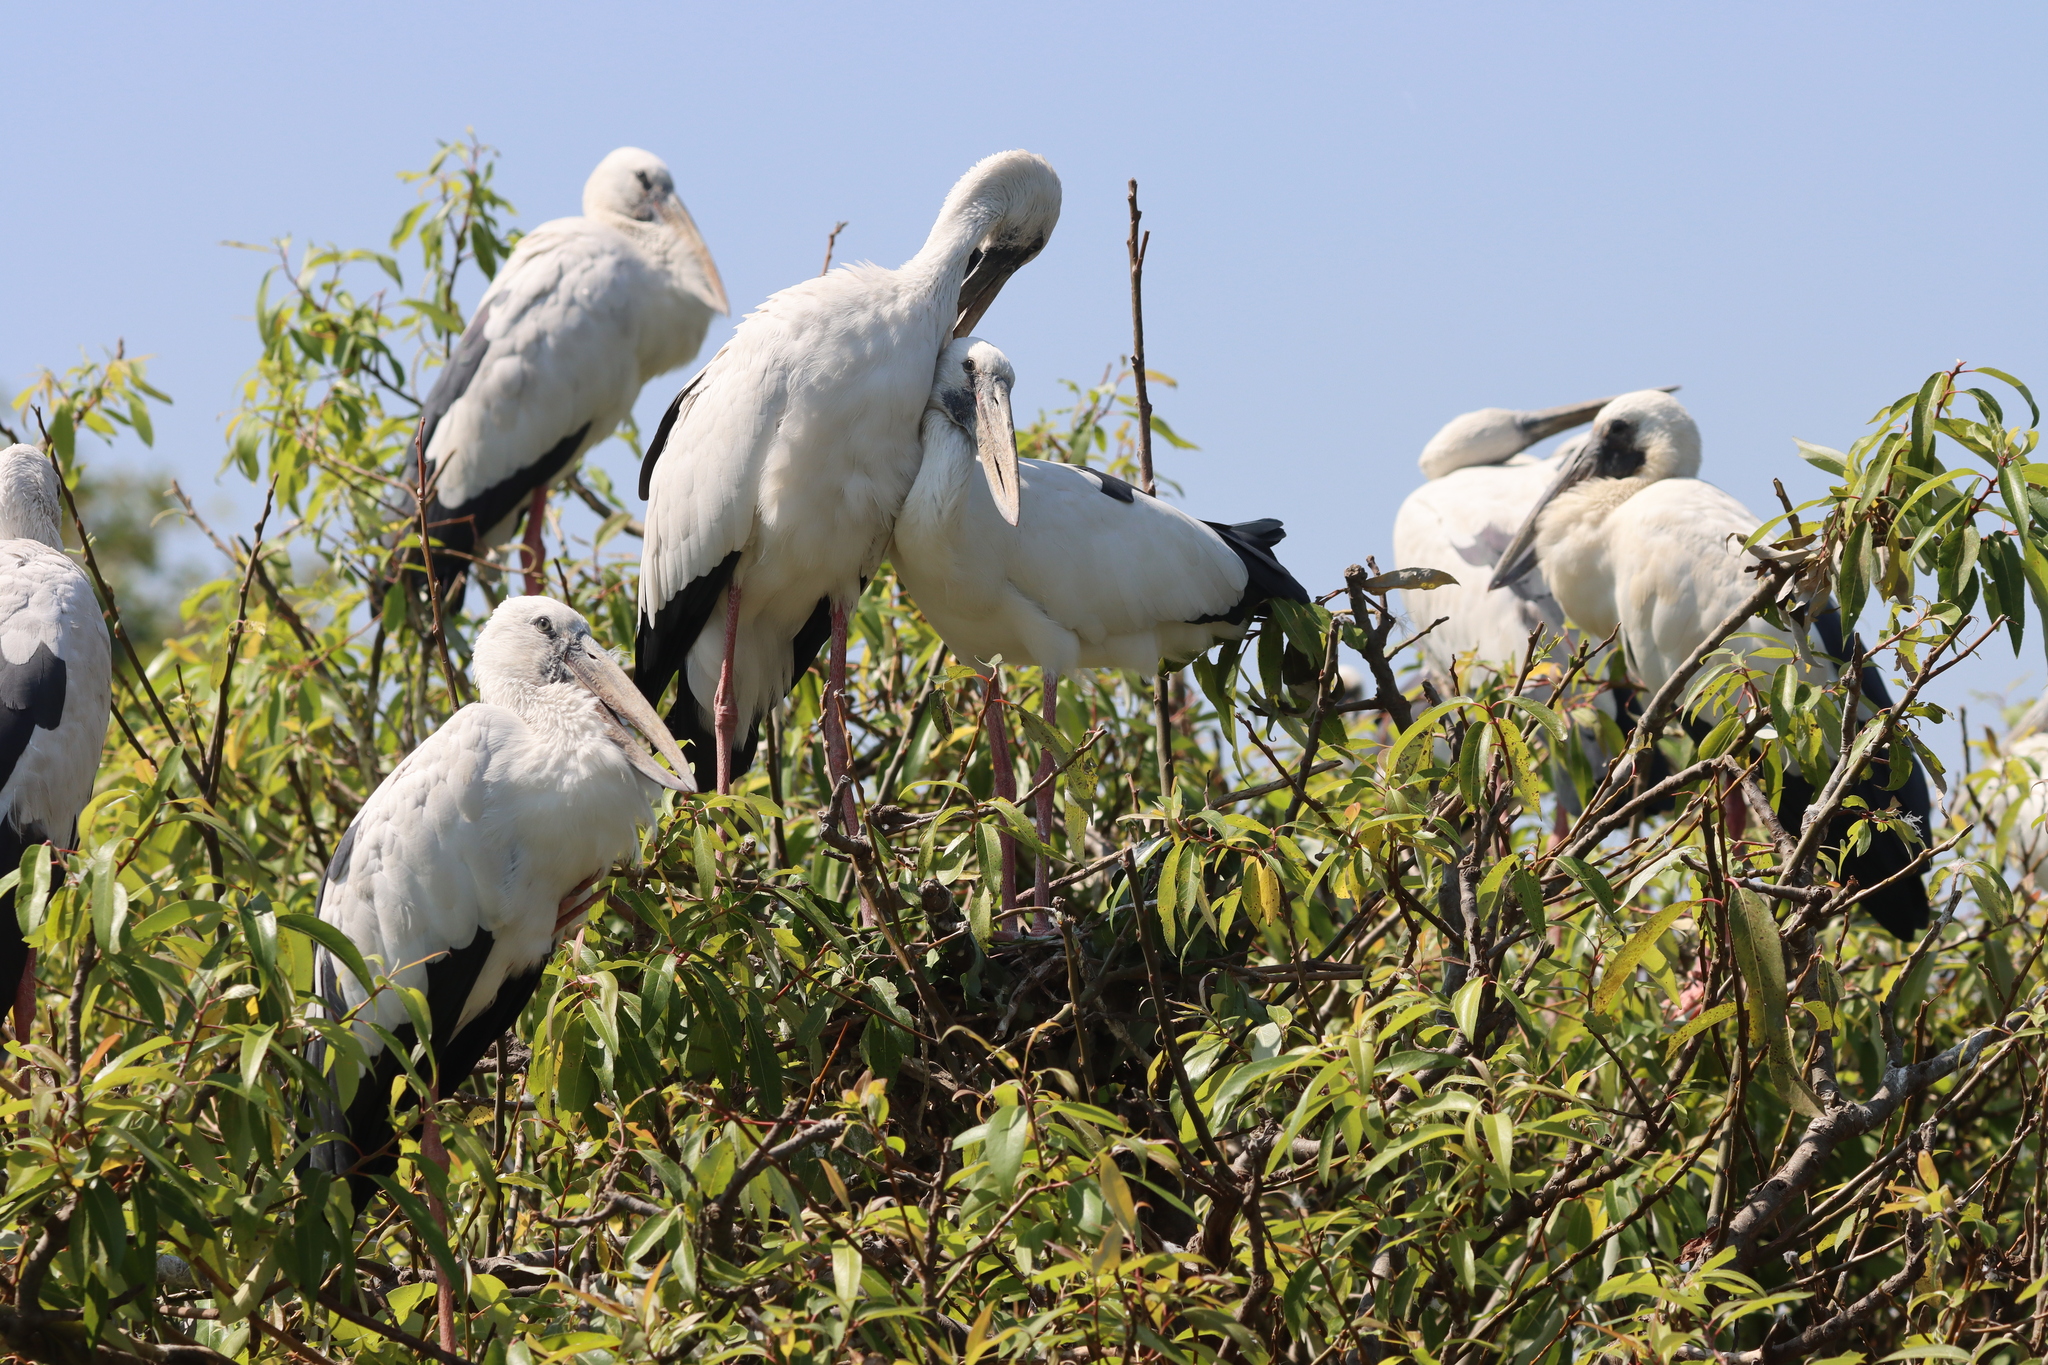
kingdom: Animalia
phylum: Chordata
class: Aves
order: Ciconiiformes
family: Ciconiidae
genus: Anastomus
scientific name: Anastomus oscitans
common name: Asian openbill
